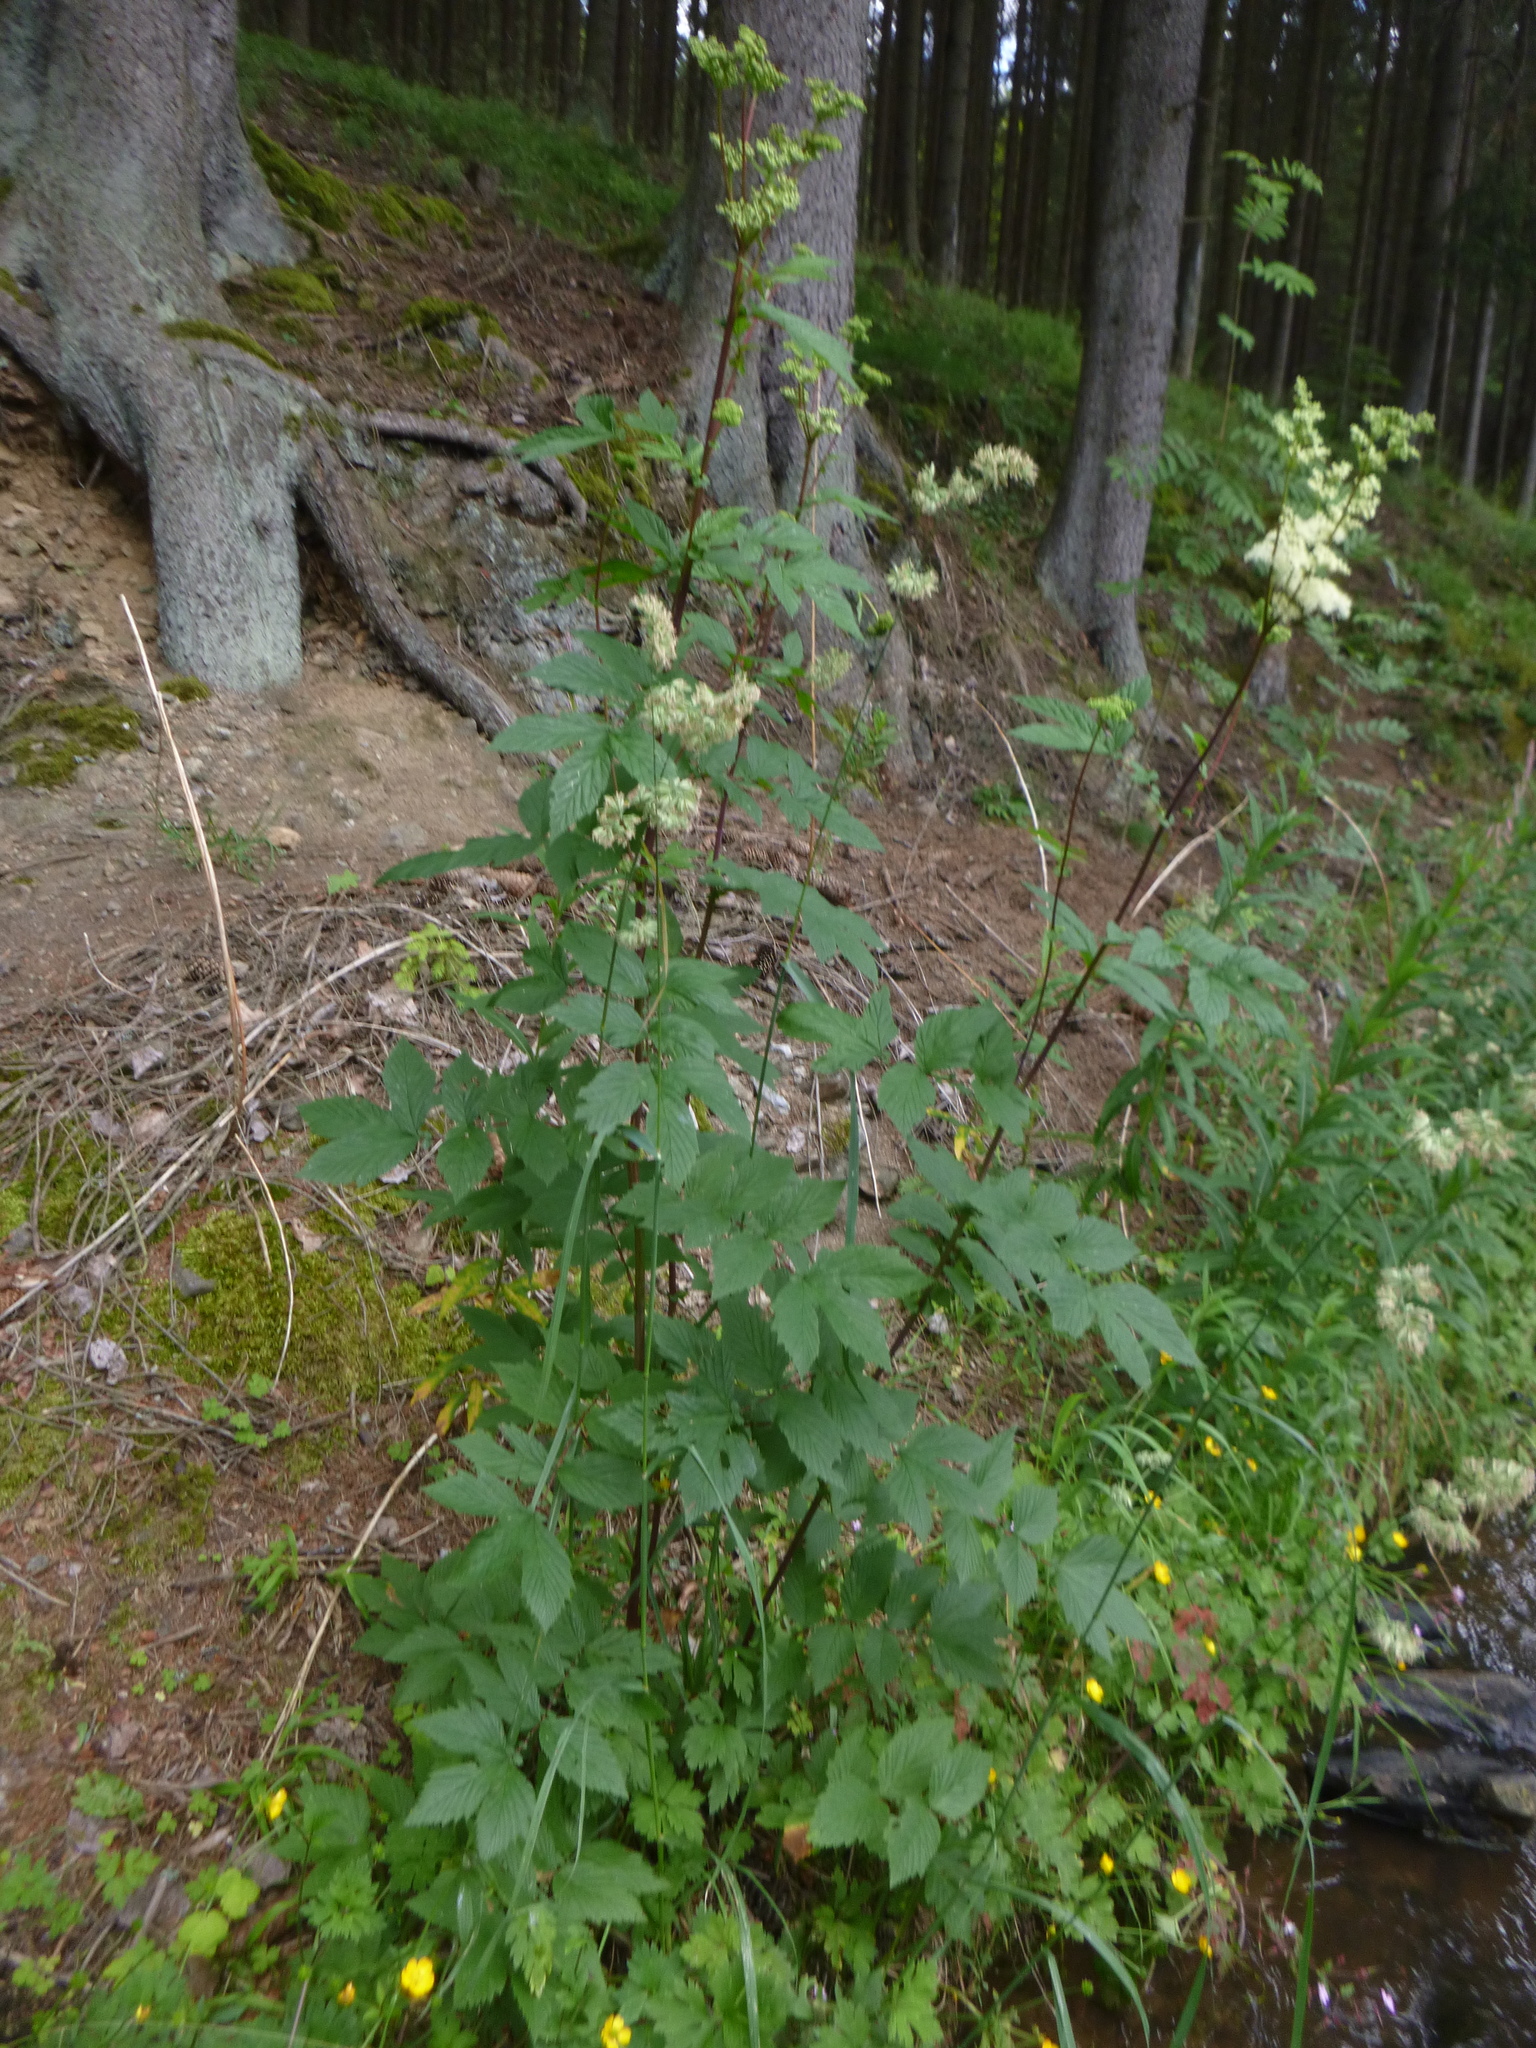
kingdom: Plantae
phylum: Tracheophyta
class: Magnoliopsida
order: Rosales
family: Rosaceae
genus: Filipendula
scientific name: Filipendula ulmaria
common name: Meadowsweet
